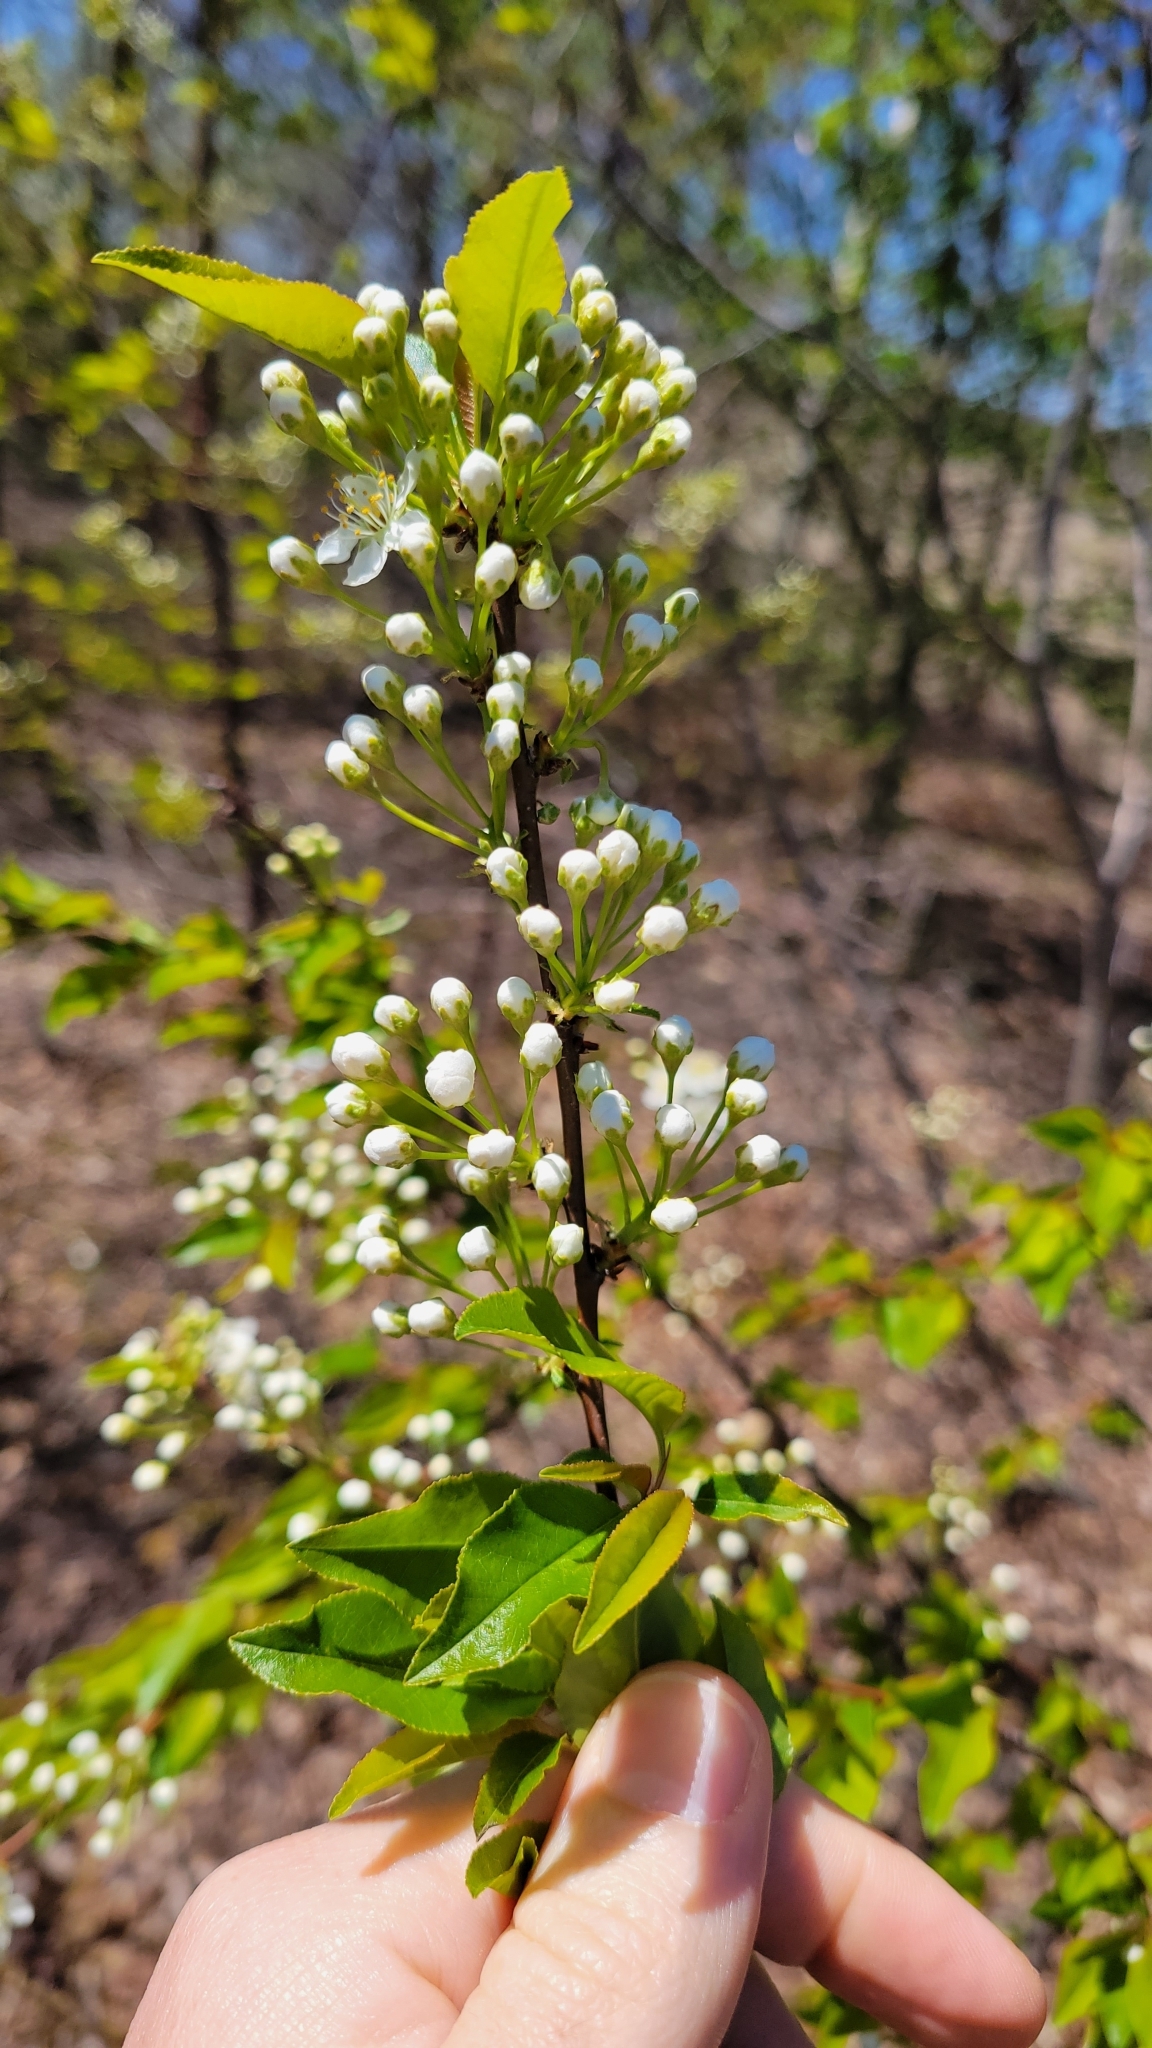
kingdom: Plantae
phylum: Tracheophyta
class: Magnoliopsida
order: Rosales
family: Rosaceae
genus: Prunus
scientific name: Prunus pensylvanica
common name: Pin cherry
